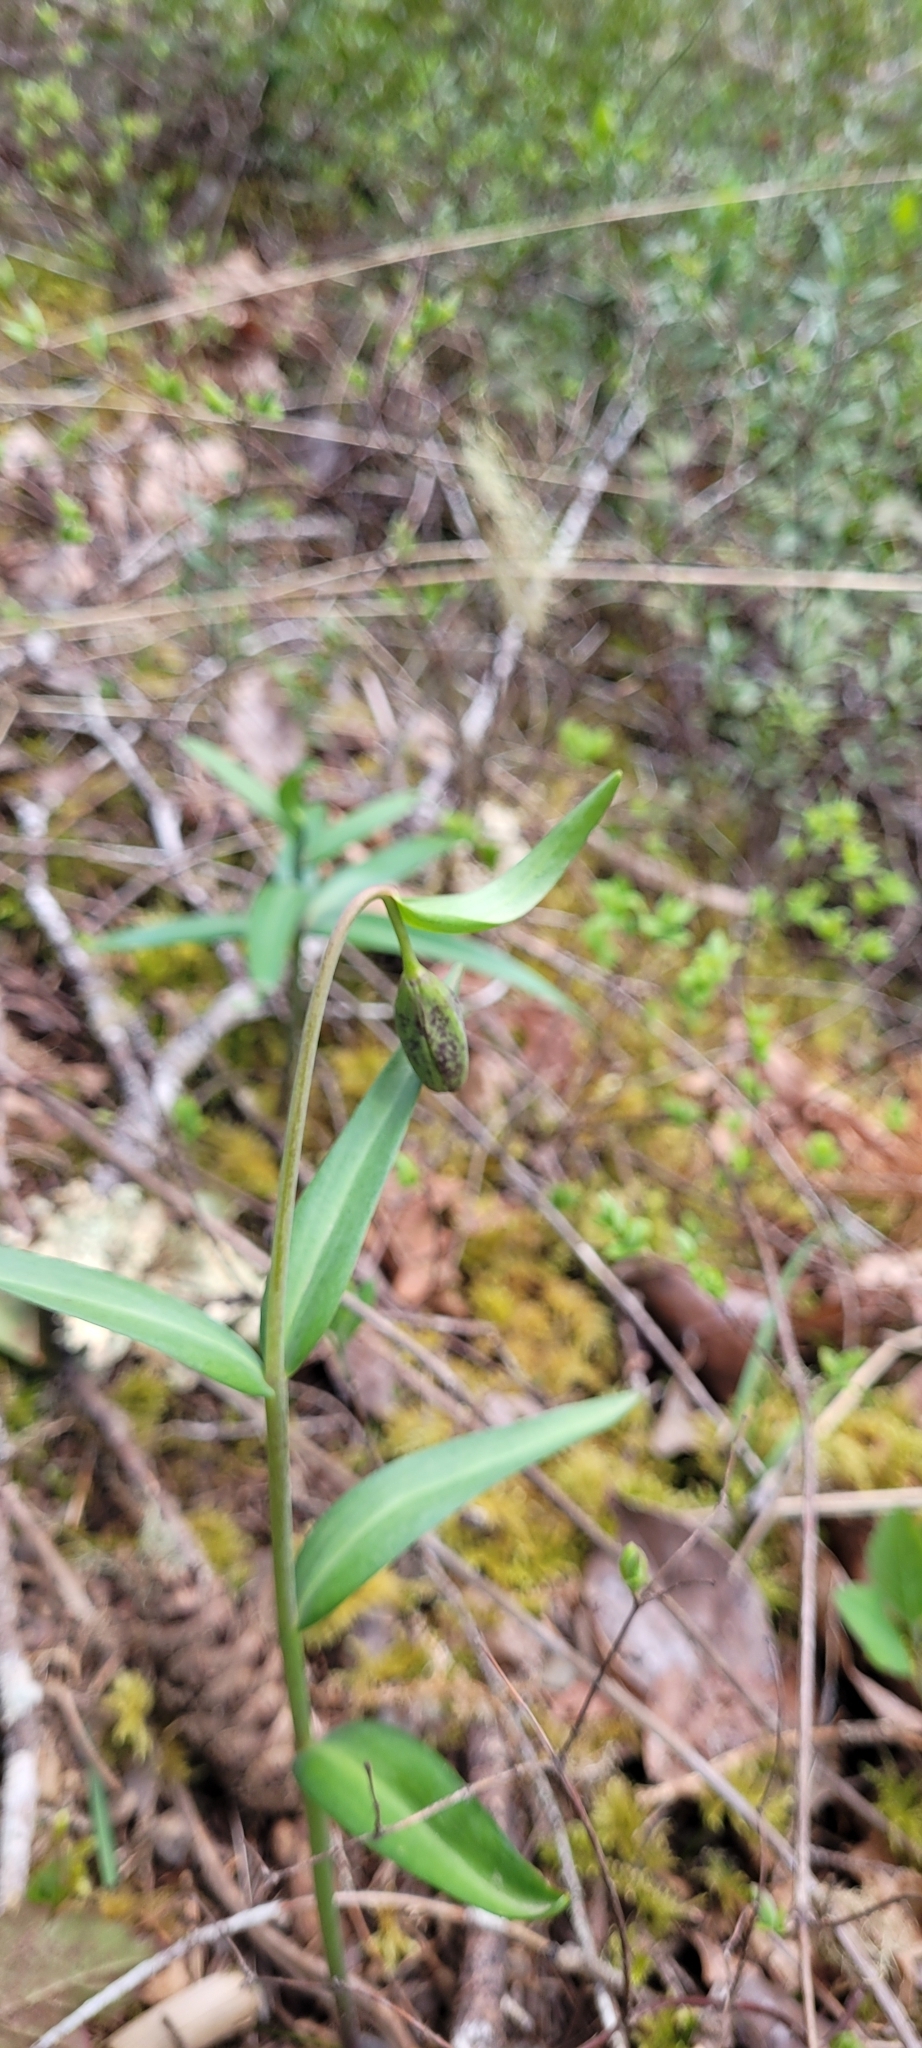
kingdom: Plantae
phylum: Tracheophyta
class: Liliopsida
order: Liliales
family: Liliaceae
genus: Fritillaria
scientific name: Fritillaria affinis
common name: Ojai fritillary
